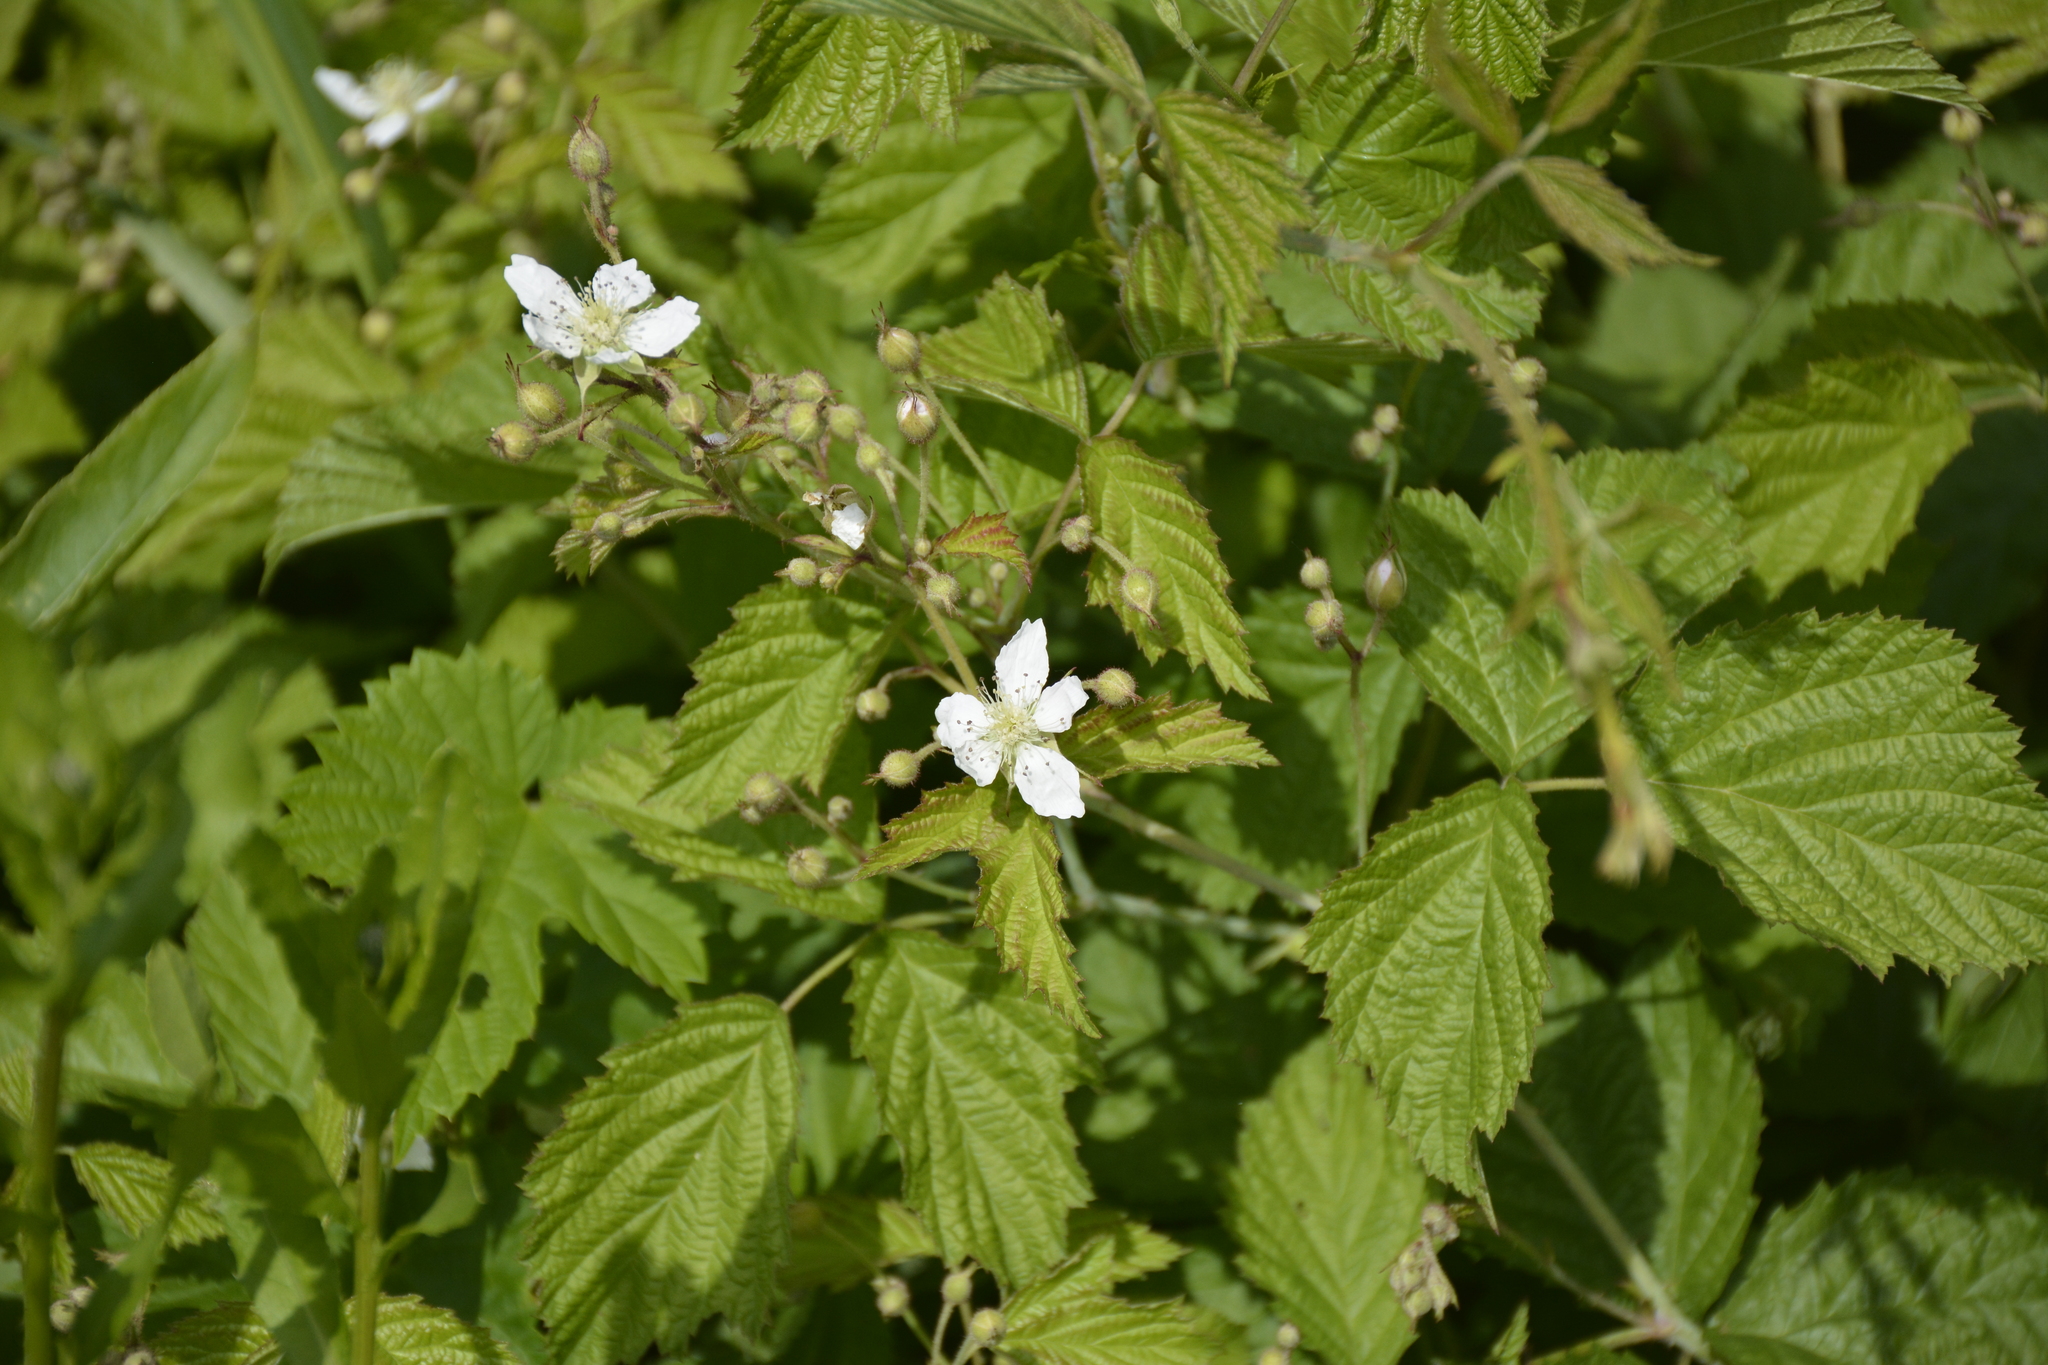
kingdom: Plantae
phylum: Tracheophyta
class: Magnoliopsida
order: Rosales
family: Rosaceae
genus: Rubus
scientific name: Rubus caesius
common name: Dewberry
